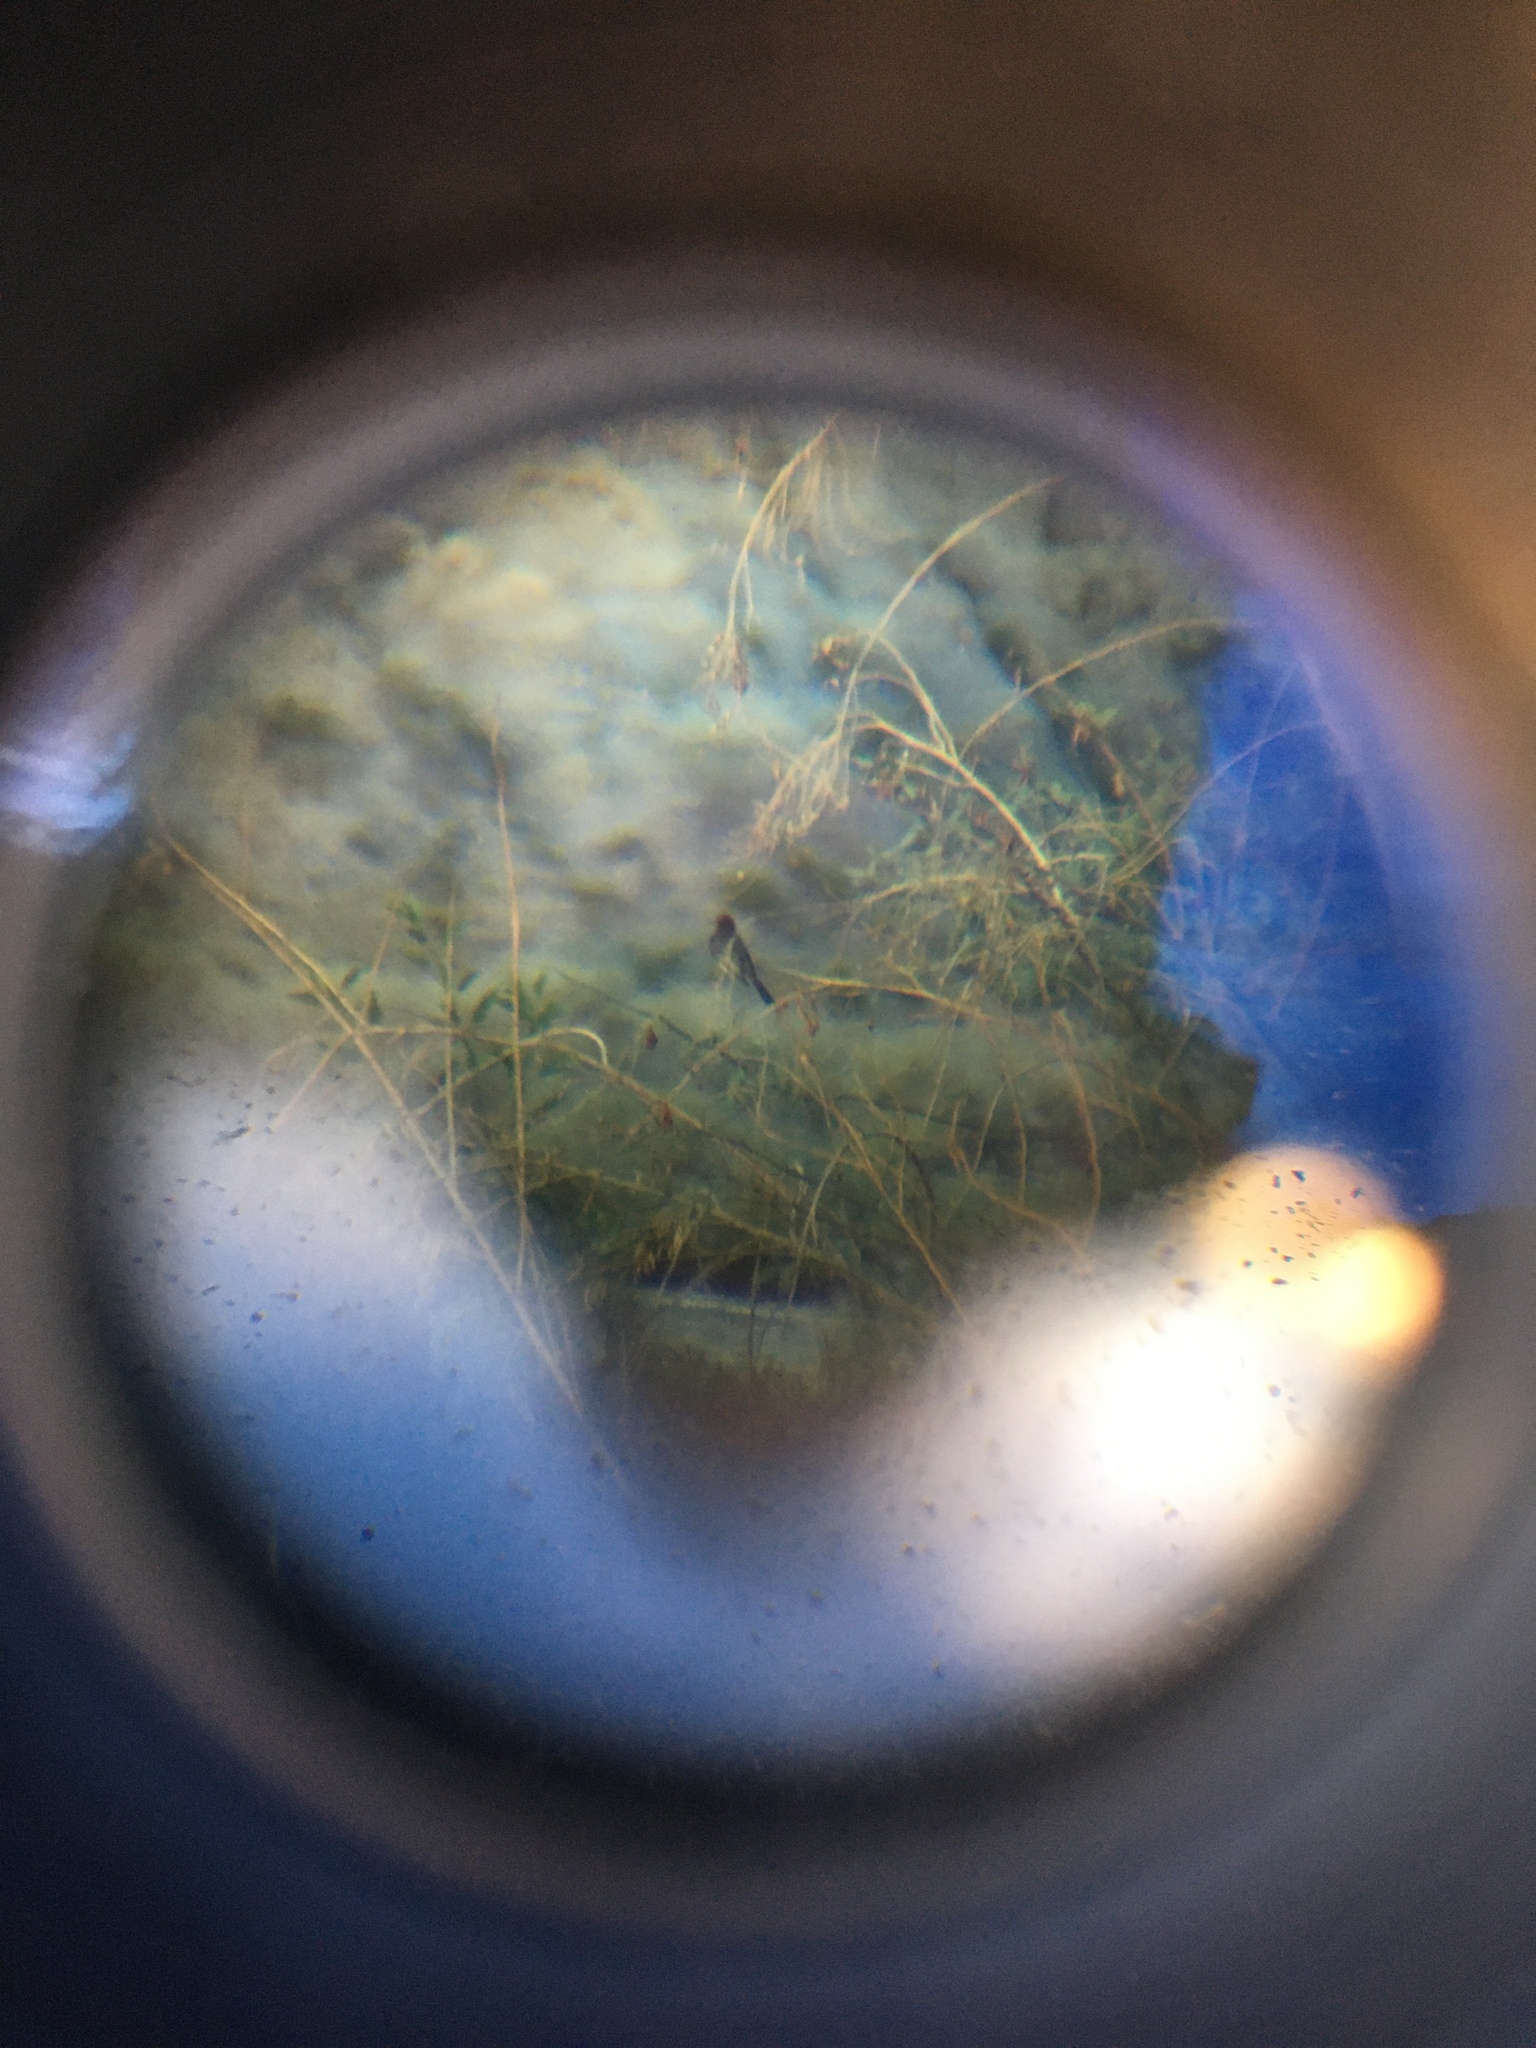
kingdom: Animalia
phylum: Chordata
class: Aves
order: Passeriformes
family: Passerellidae
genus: Pipilo
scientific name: Pipilo chlorurus
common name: Green-tailed towhee
